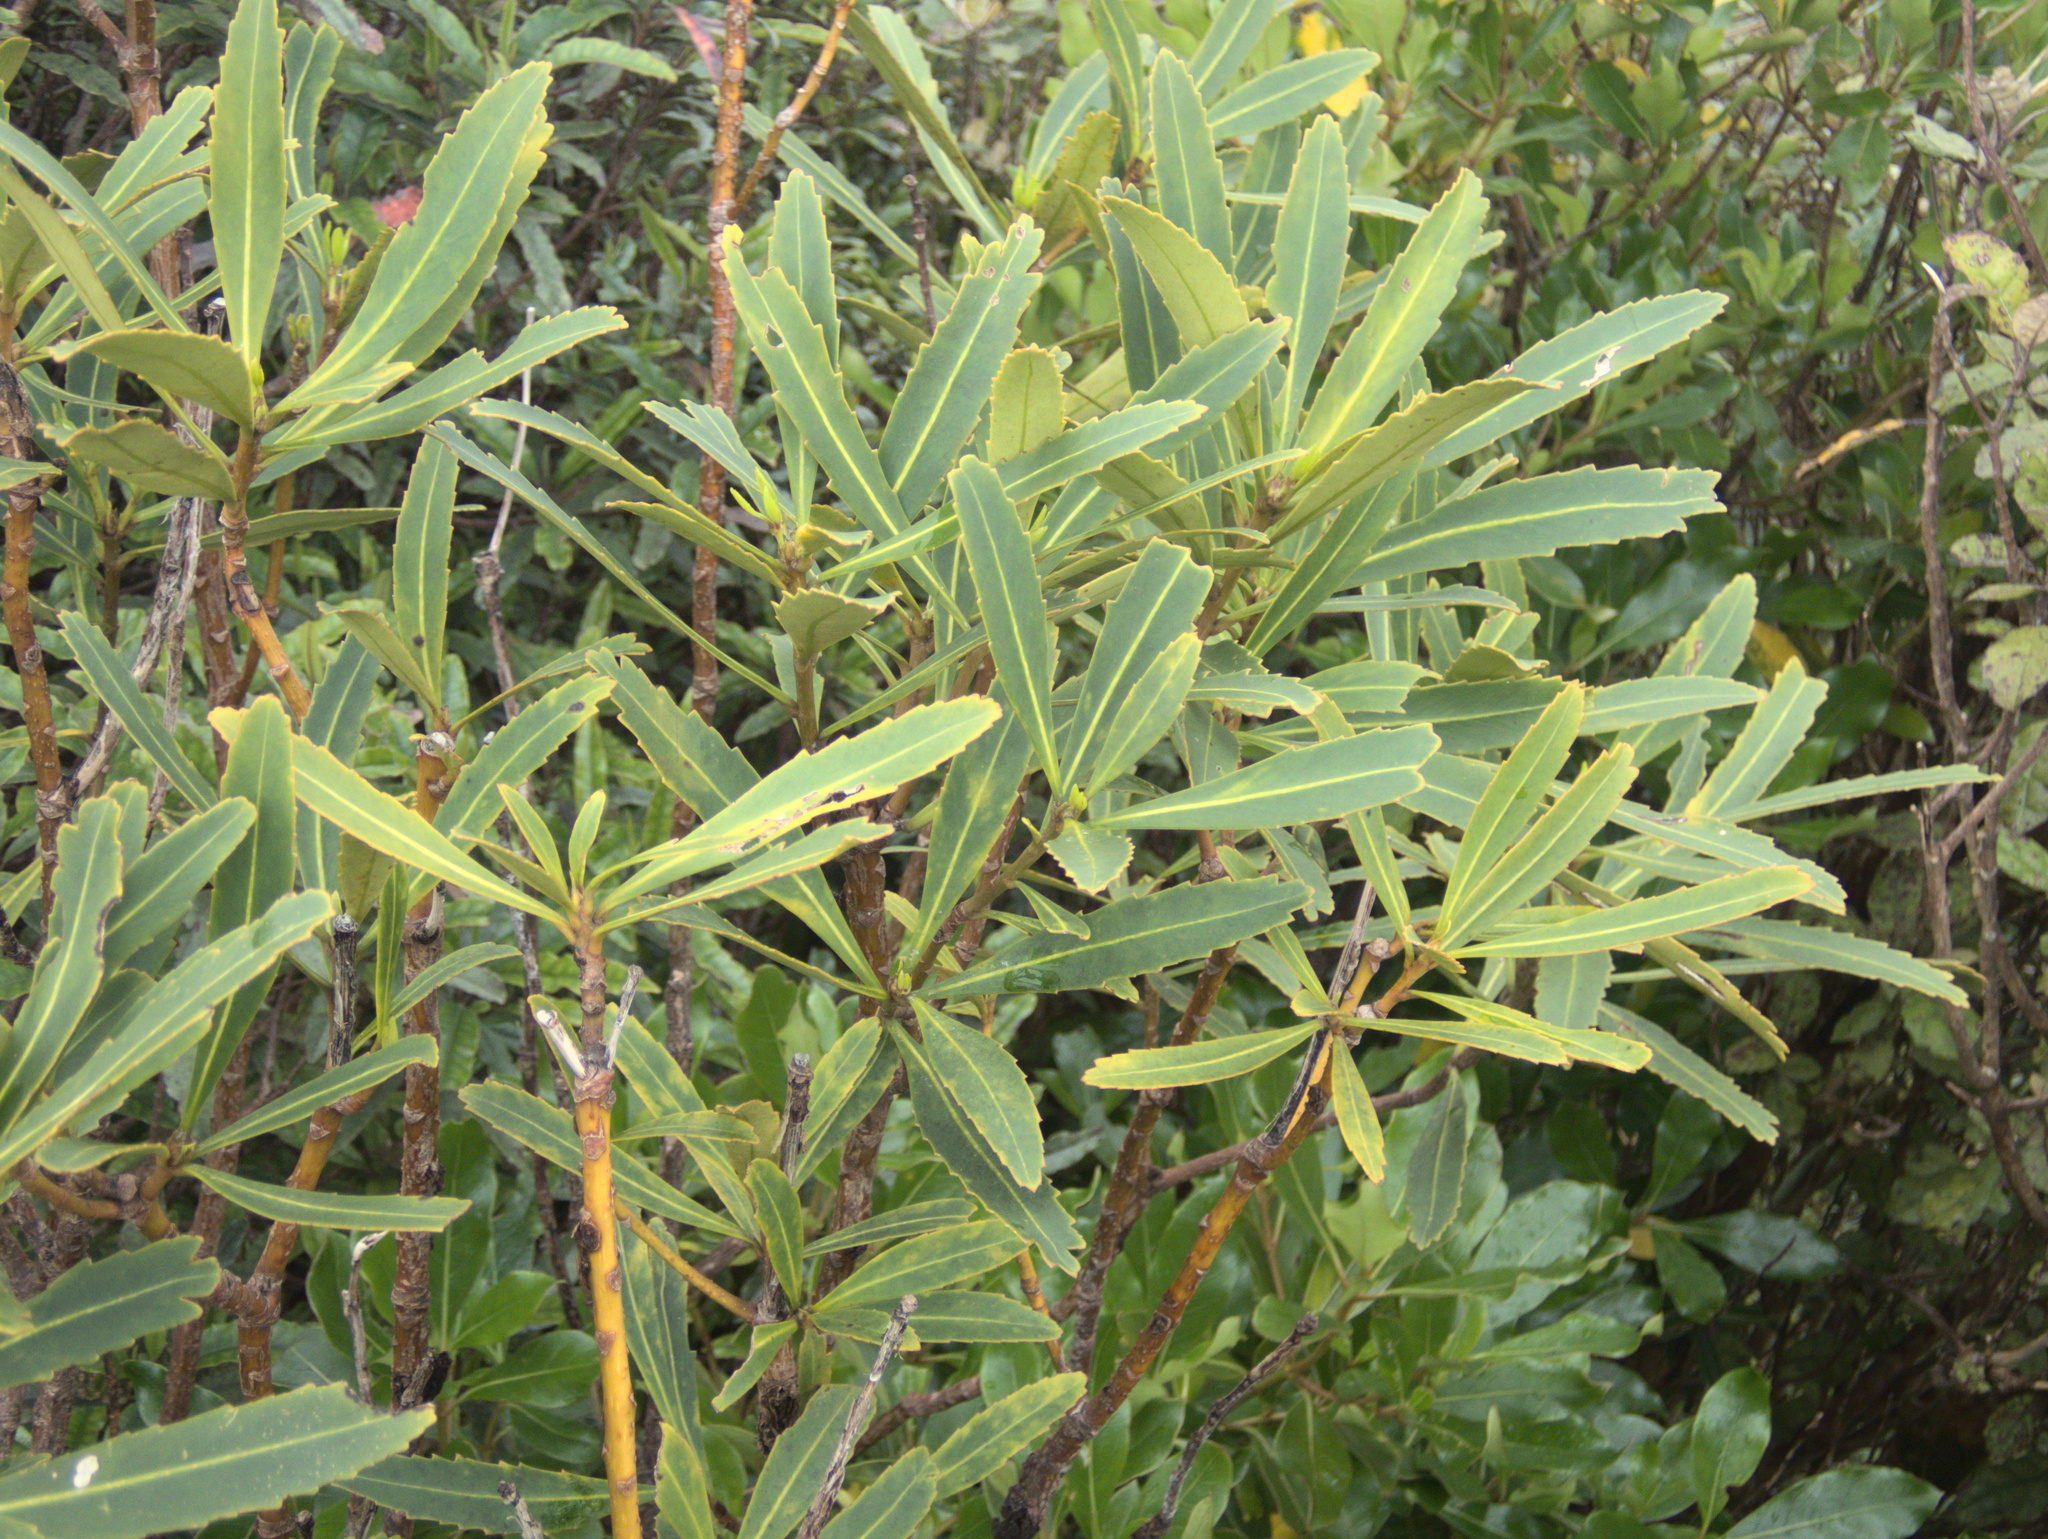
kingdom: Plantae
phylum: Tracheophyta
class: Magnoliopsida
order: Apiales
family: Araliaceae
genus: Pseudopanax
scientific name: Pseudopanax crassifolius
